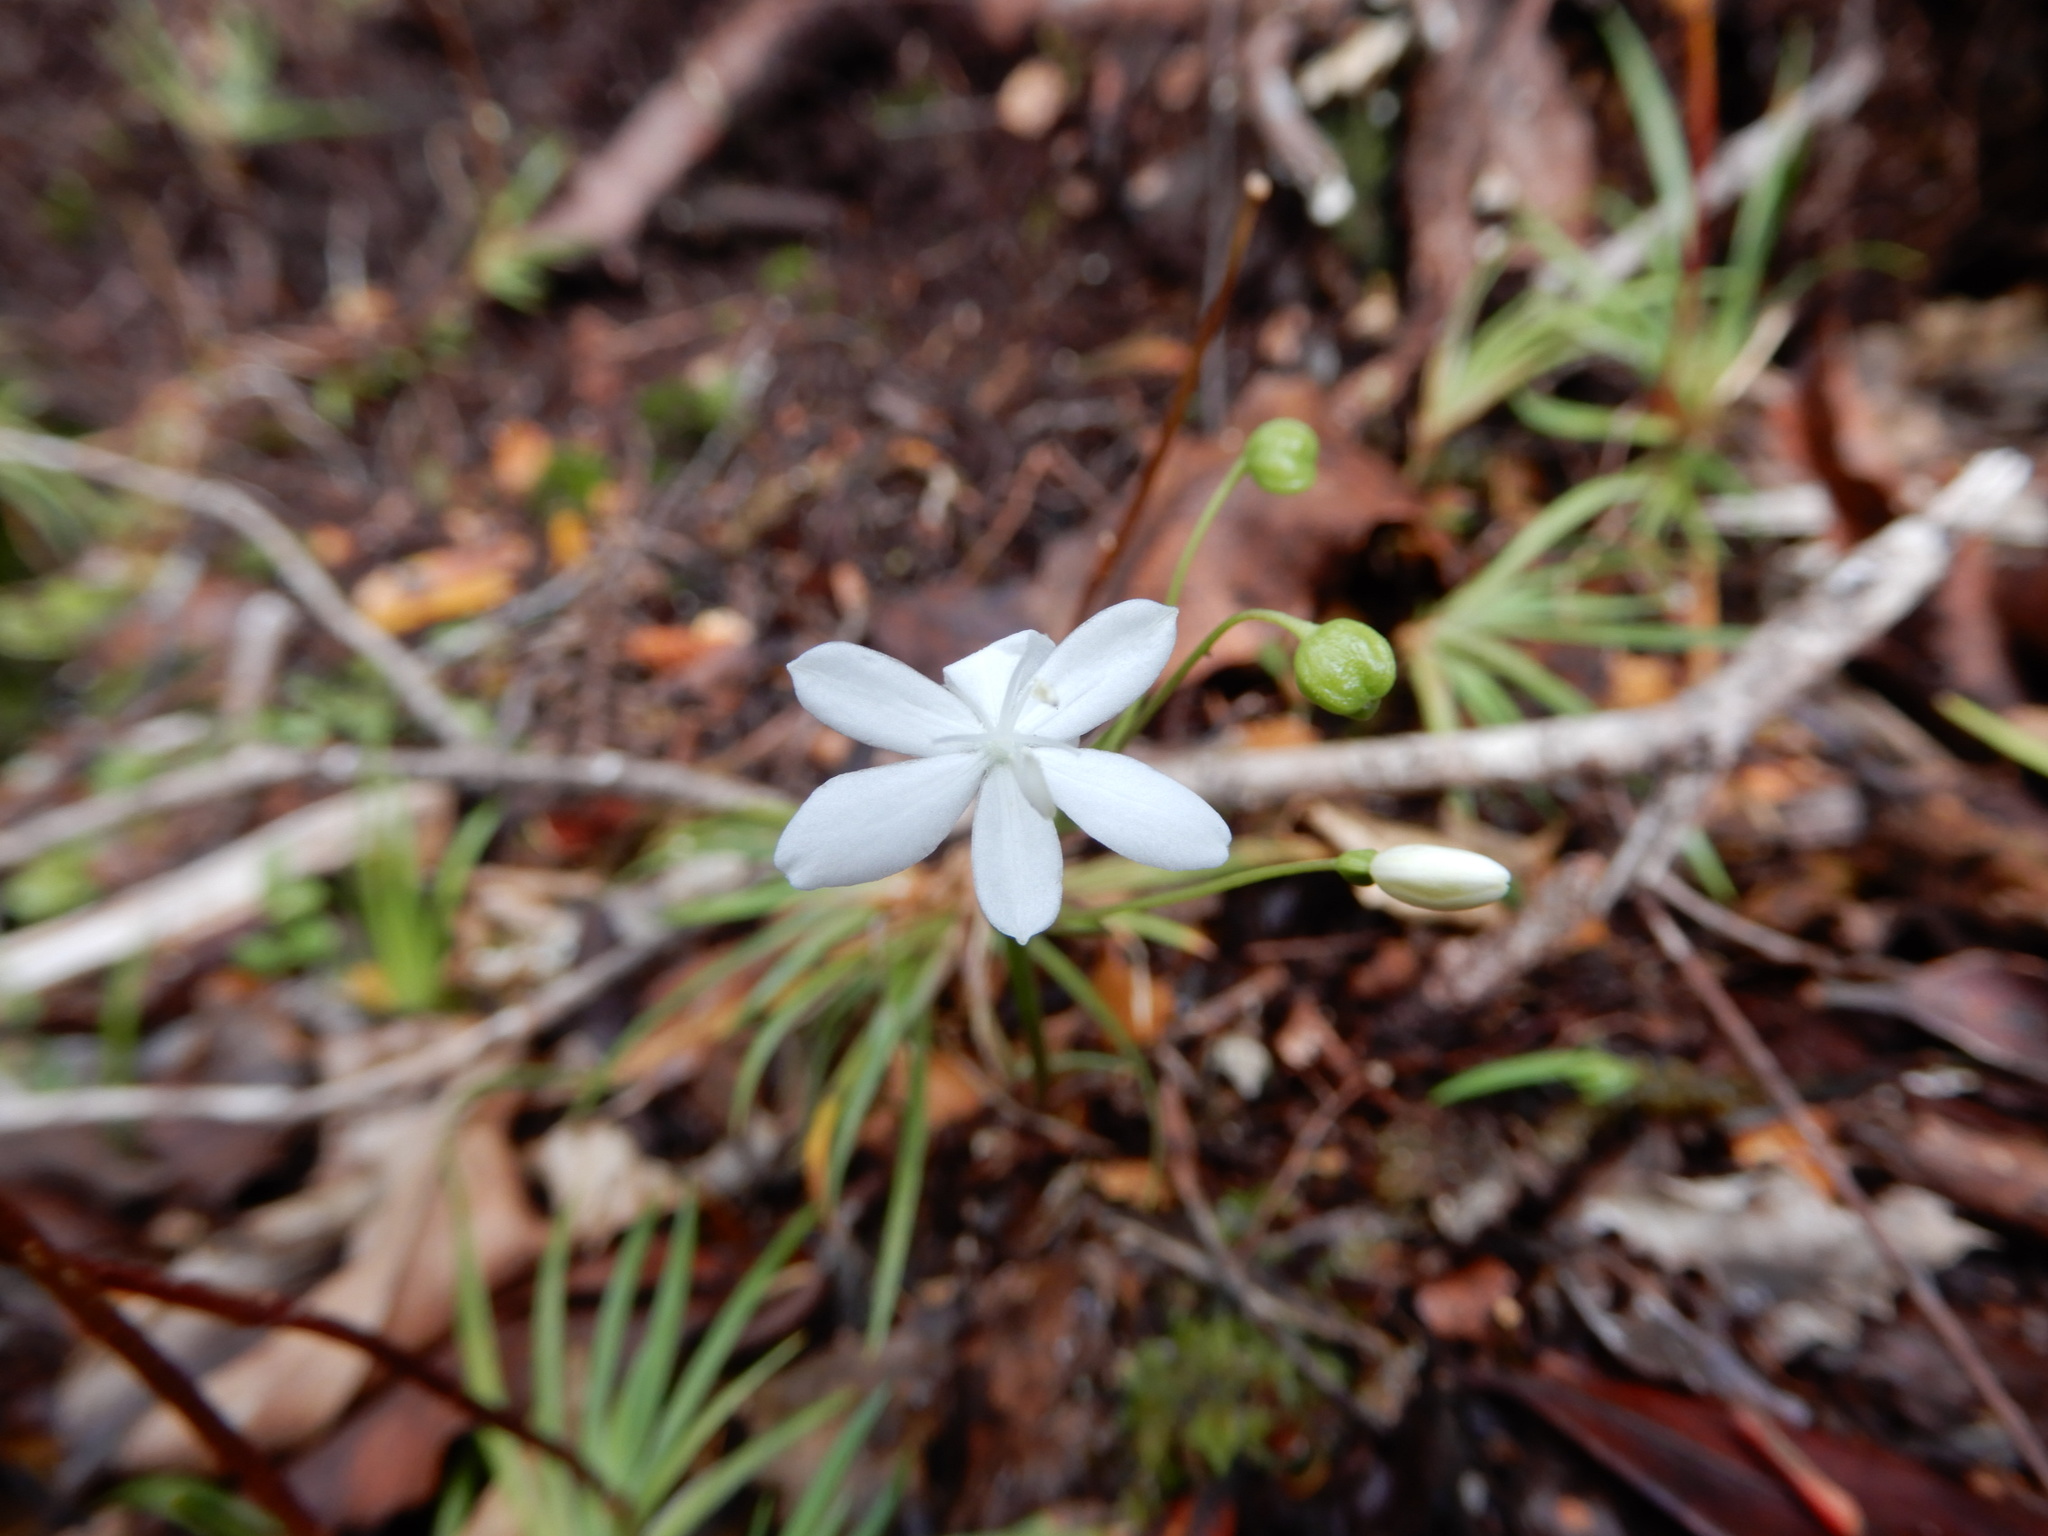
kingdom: Plantae
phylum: Tracheophyta
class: Liliopsida
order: Asparagales
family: Iridaceae
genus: Libertia
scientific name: Libertia micrantha
